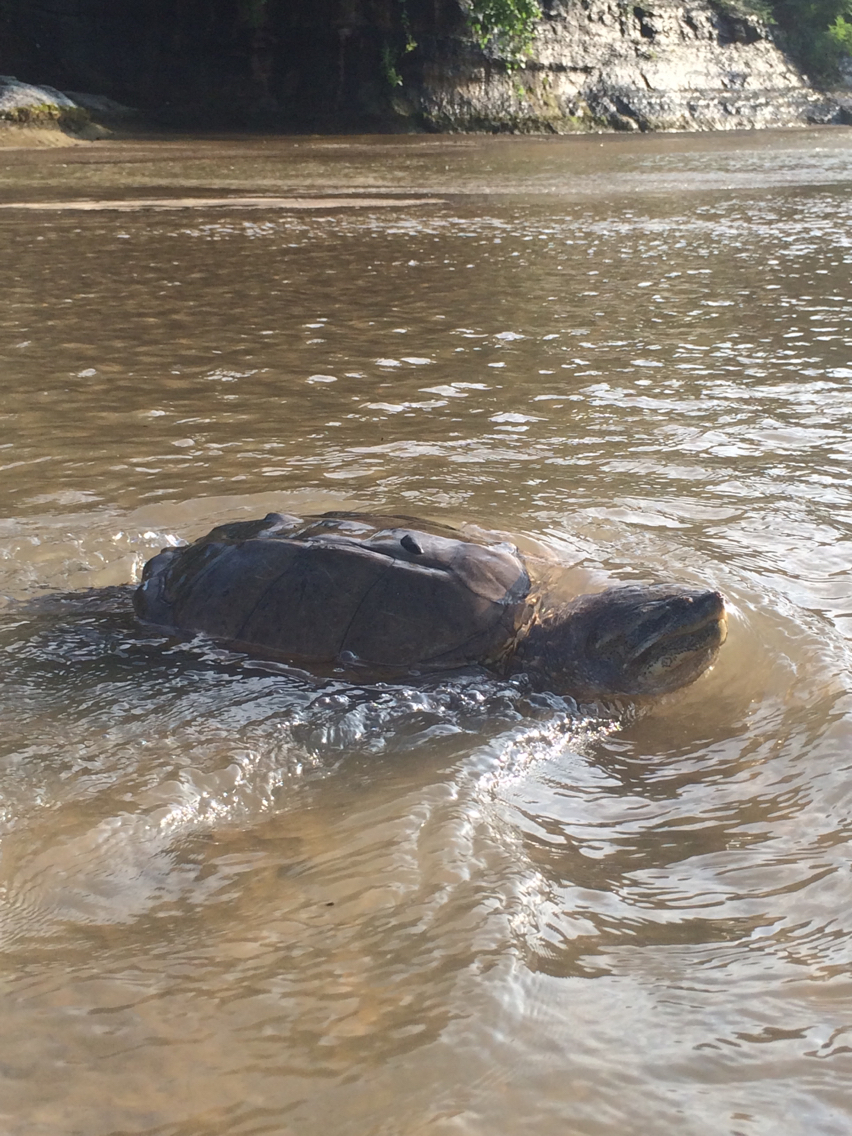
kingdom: Animalia
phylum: Chordata
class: Testudines
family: Chelydridae
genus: Chelydra
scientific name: Chelydra serpentina
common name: Common snapping turtle
